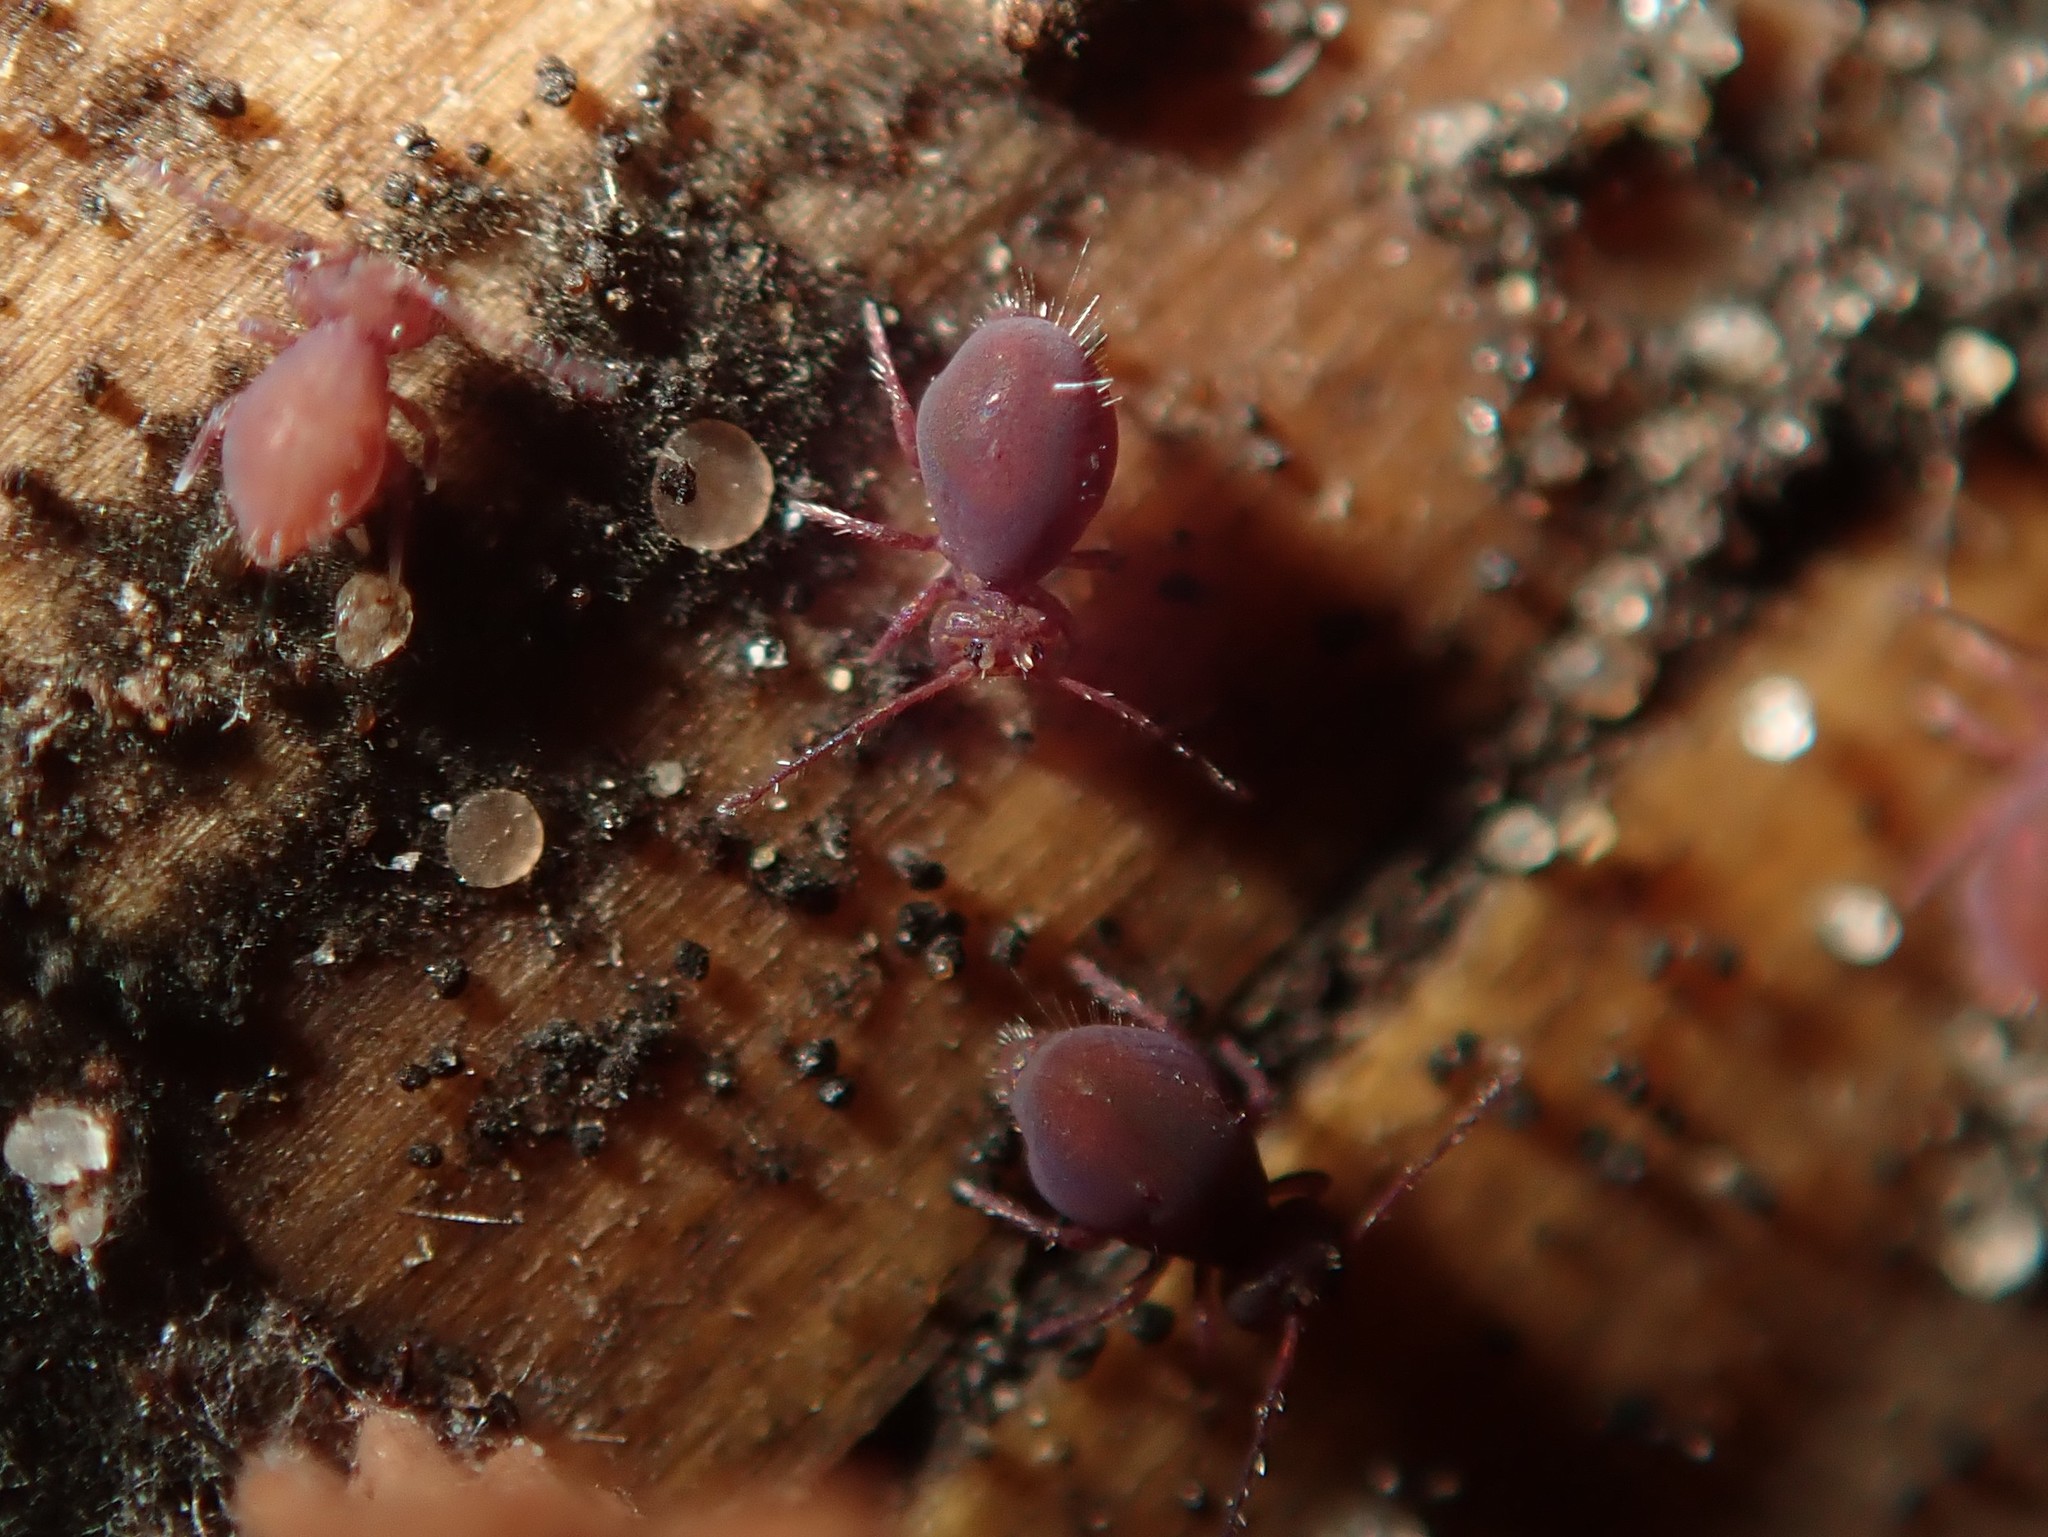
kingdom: Animalia
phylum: Arthropoda
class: Collembola
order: Symphypleona
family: Dicyrtomidae
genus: Dicyrtoma
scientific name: Dicyrtoma fusca
